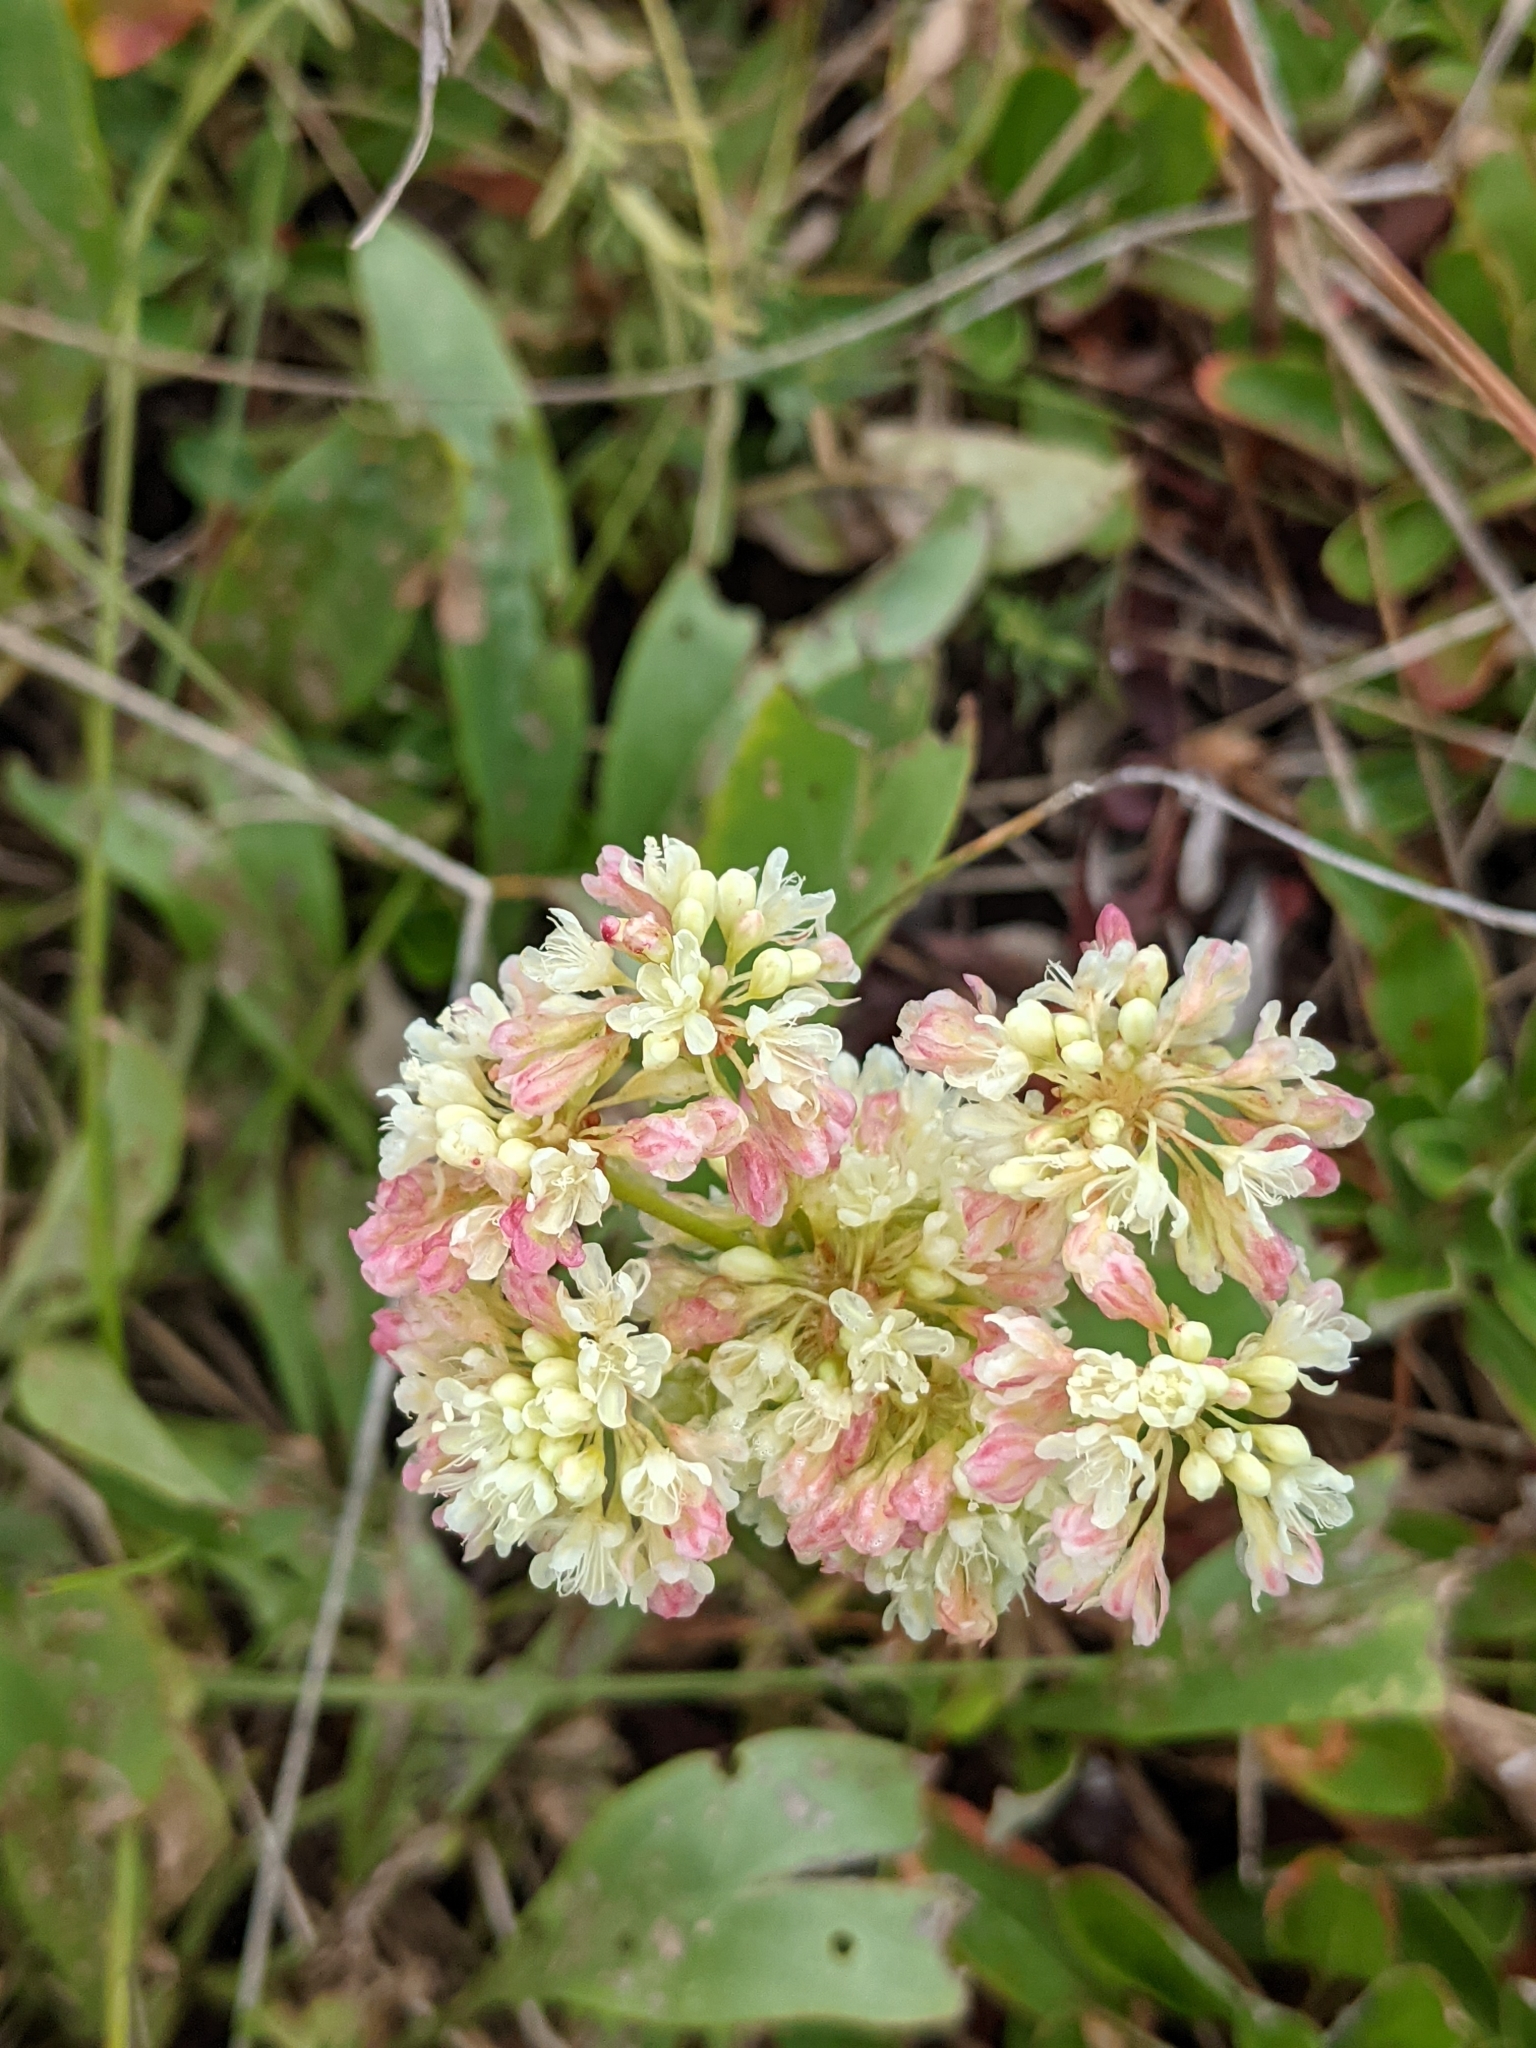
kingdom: Plantae
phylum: Tracheophyta
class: Magnoliopsida
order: Caryophyllales
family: Polygonaceae
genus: Eriogonum
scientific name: Eriogonum umbellatum
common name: Sulfur-buckwheat
